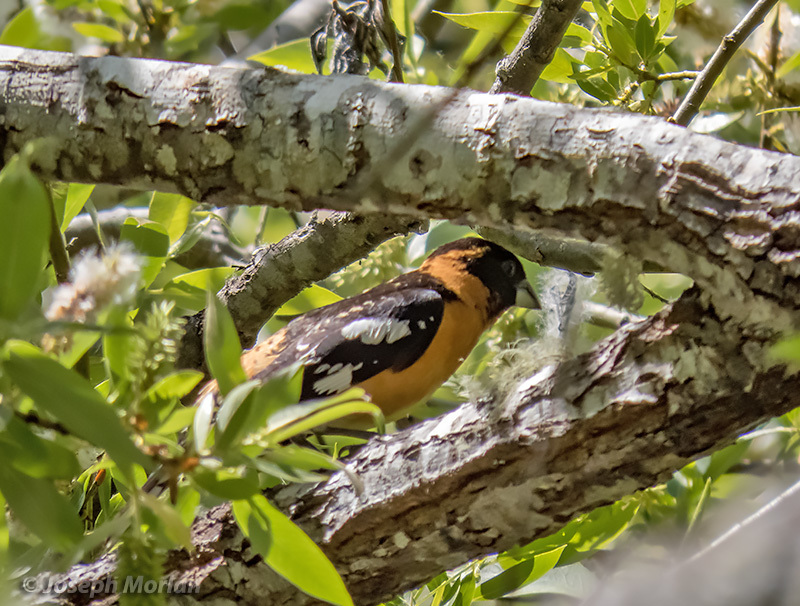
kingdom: Animalia
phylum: Chordata
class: Aves
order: Passeriformes
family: Cardinalidae
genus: Pheucticus
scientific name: Pheucticus melanocephalus
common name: Black-headed grosbeak
